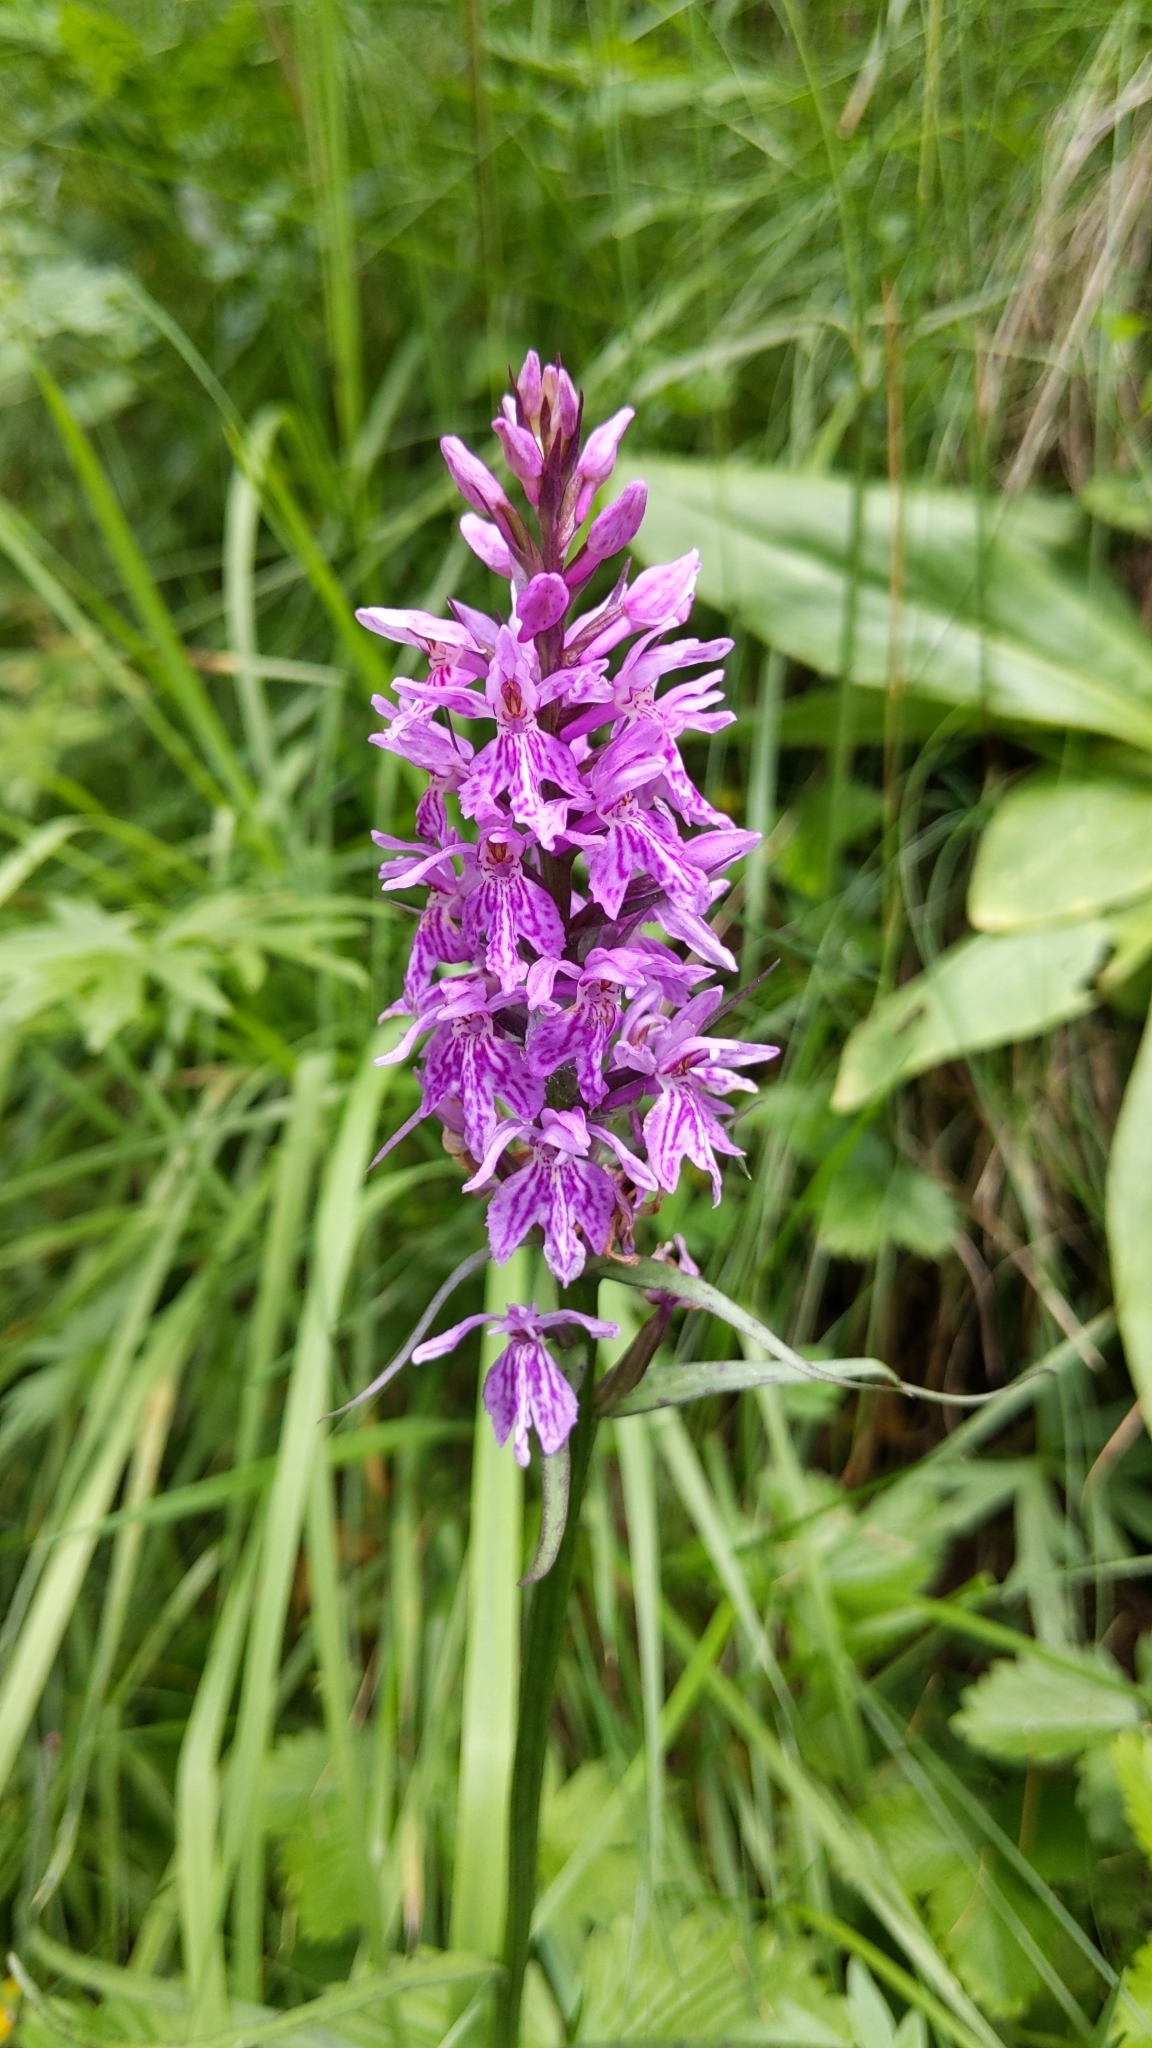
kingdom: Plantae
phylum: Tracheophyta
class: Liliopsida
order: Asparagales
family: Orchidaceae
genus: Dactylorhiza
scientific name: Dactylorhiza maculata
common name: Heath spotted-orchid
